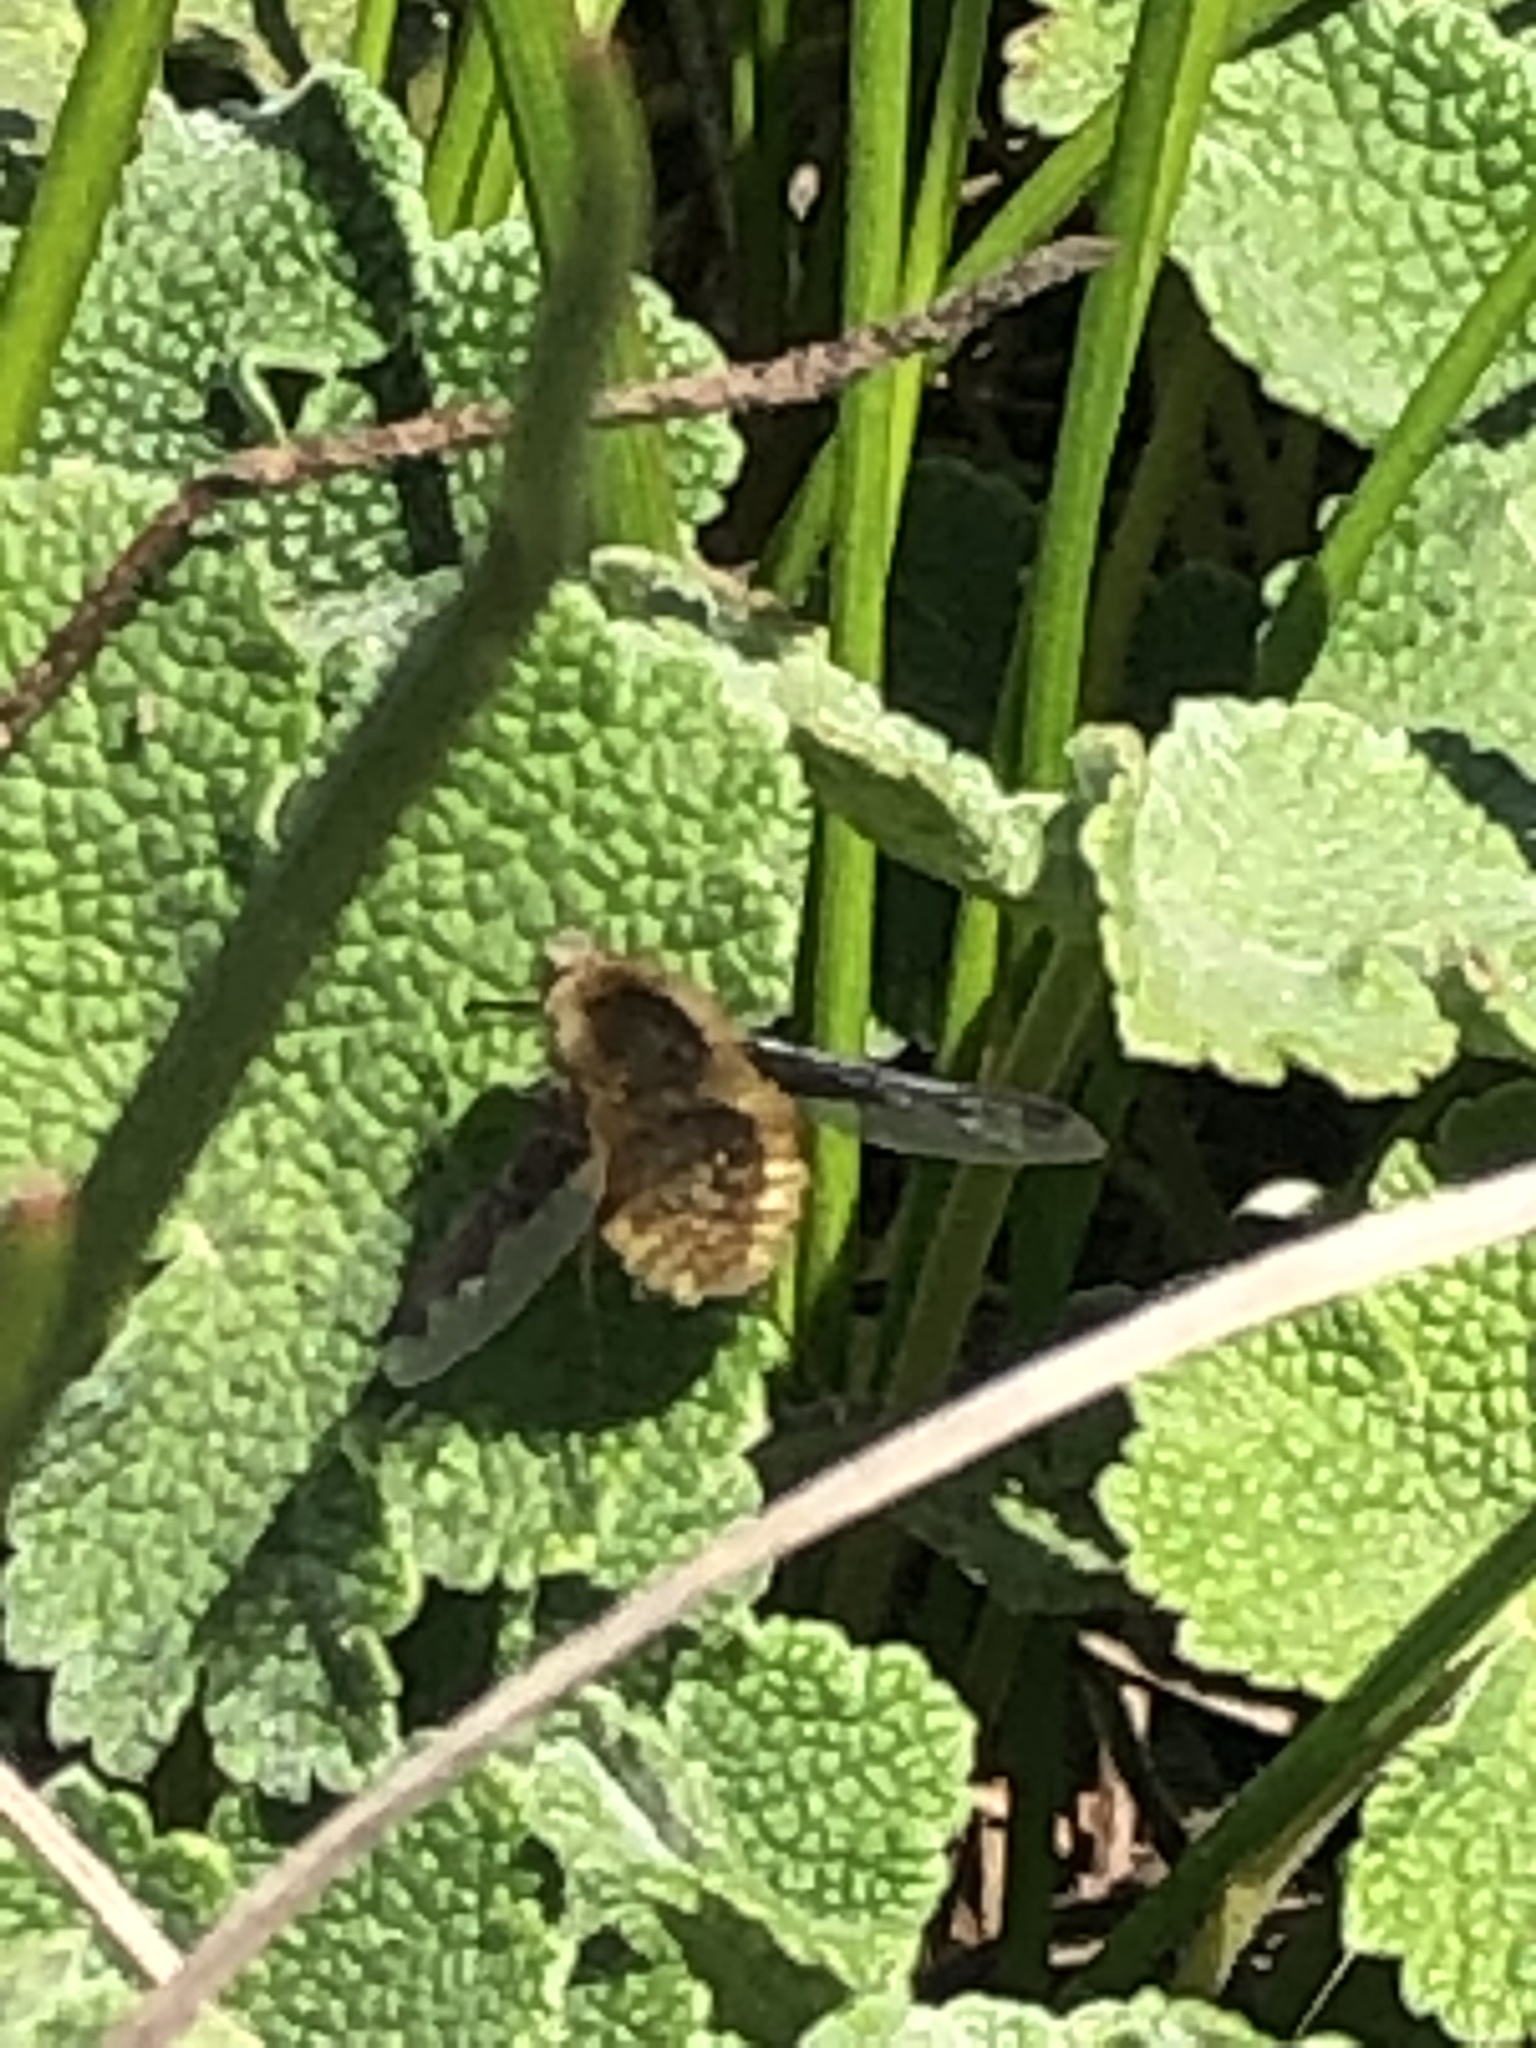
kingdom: Animalia
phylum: Arthropoda
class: Insecta
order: Diptera
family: Bombyliidae
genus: Bombylius
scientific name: Bombylius major
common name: Bee fly
